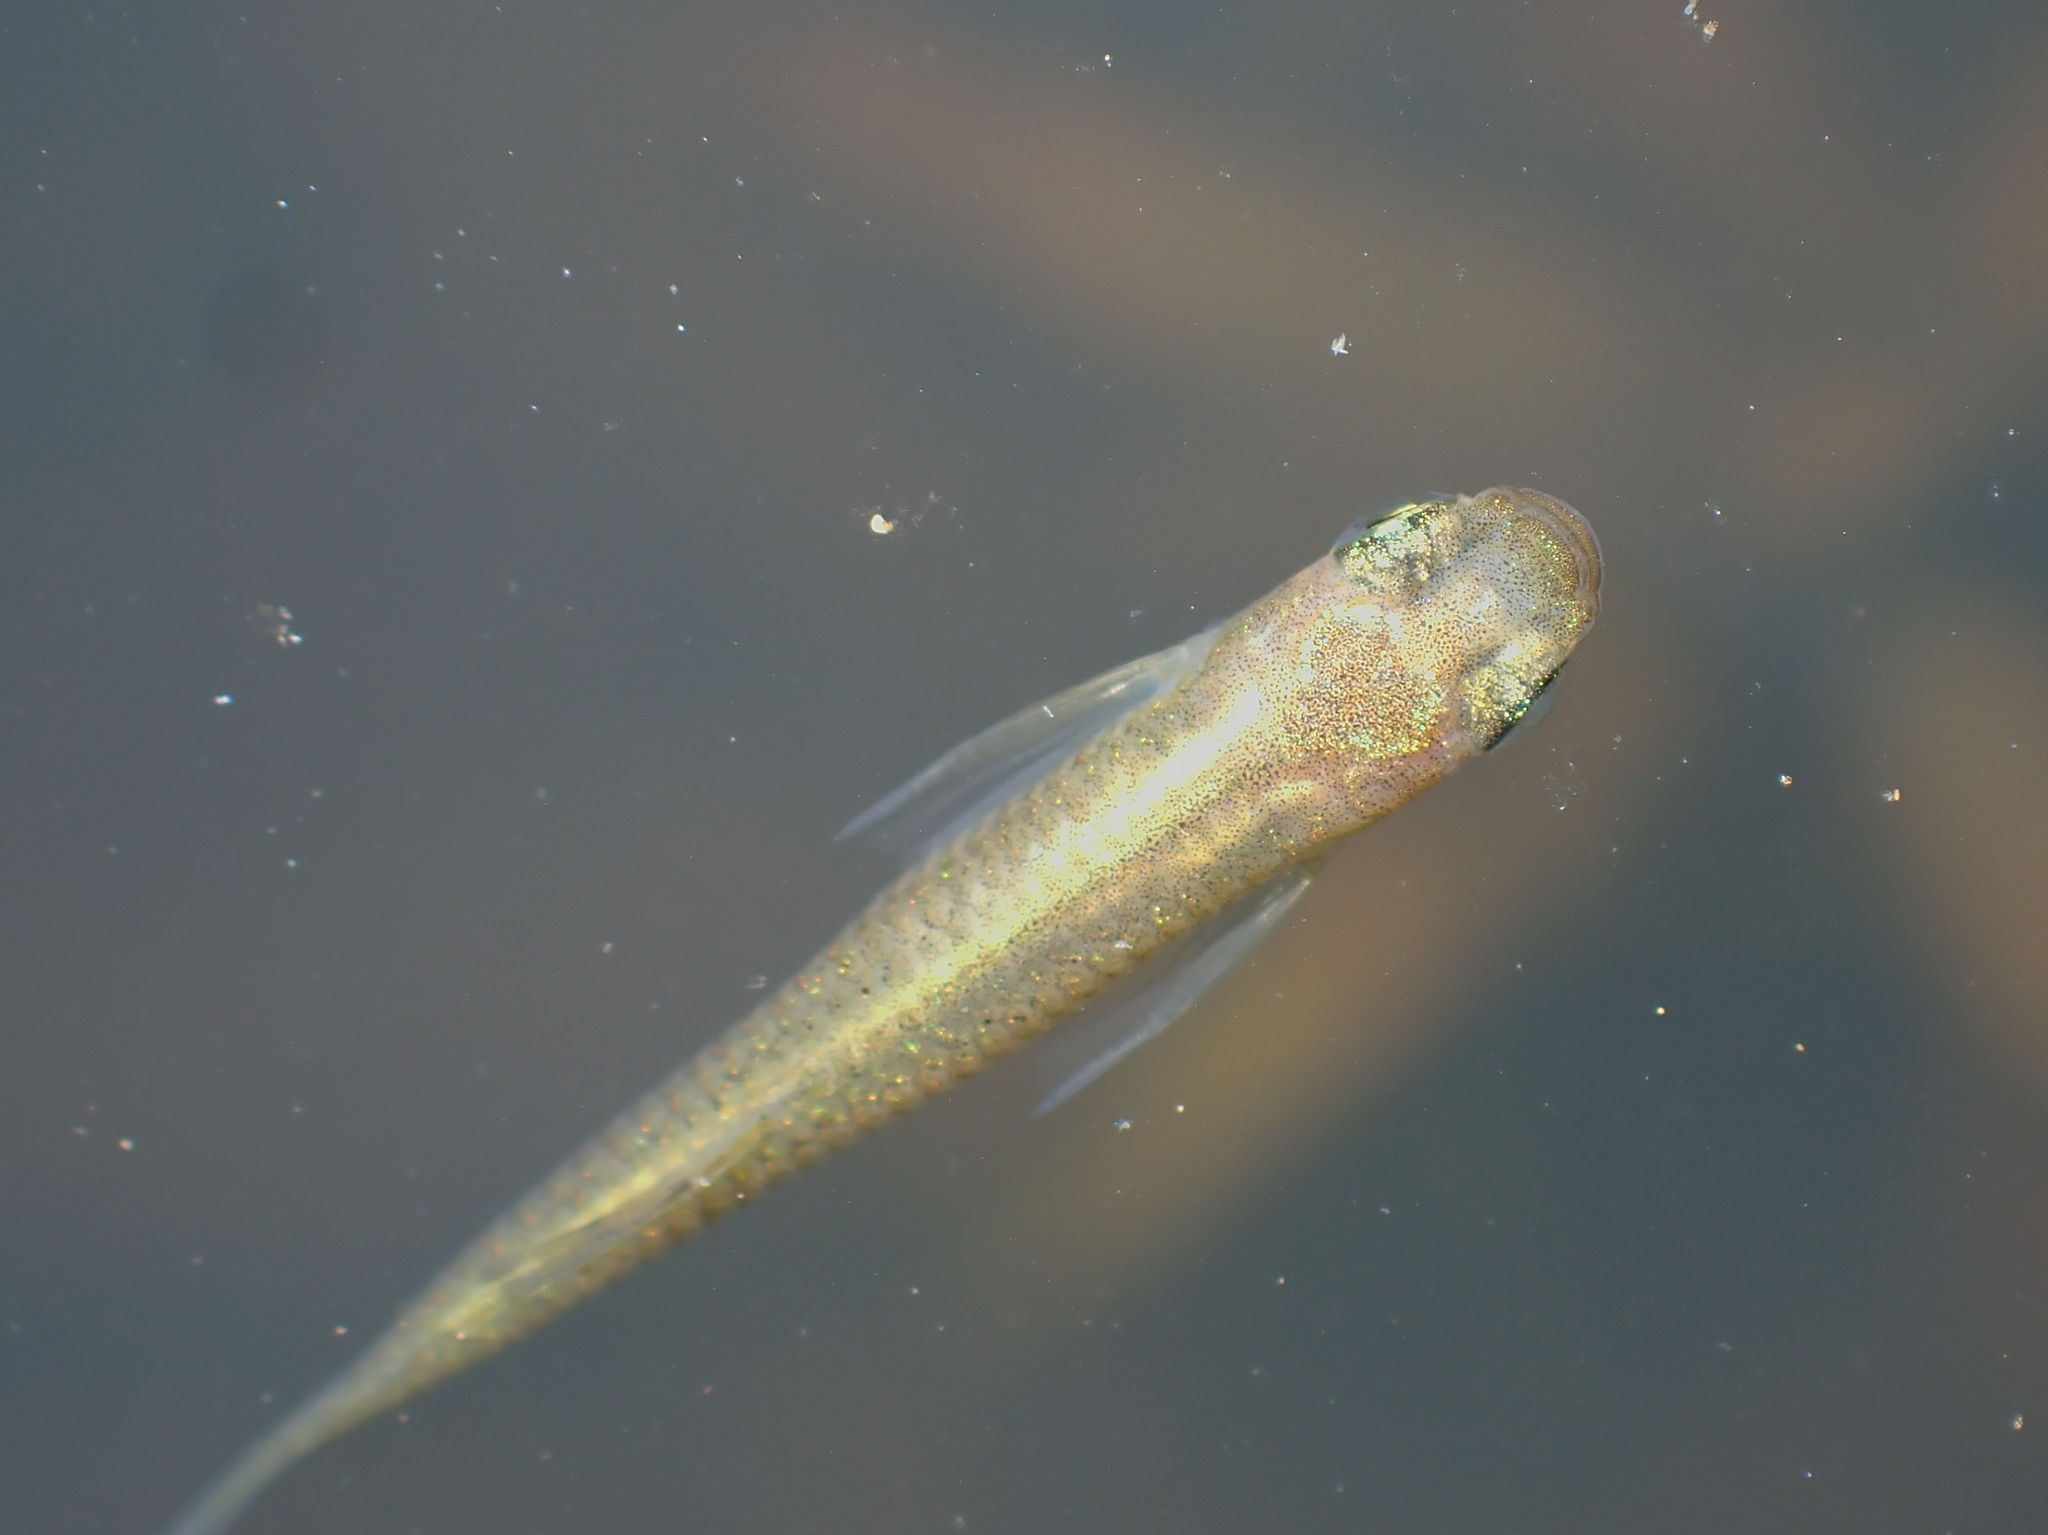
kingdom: Animalia
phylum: Chordata
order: Cyprinodontiformes
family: Poeciliidae
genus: Gambusia
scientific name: Gambusia affinis
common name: Mosquitofish
